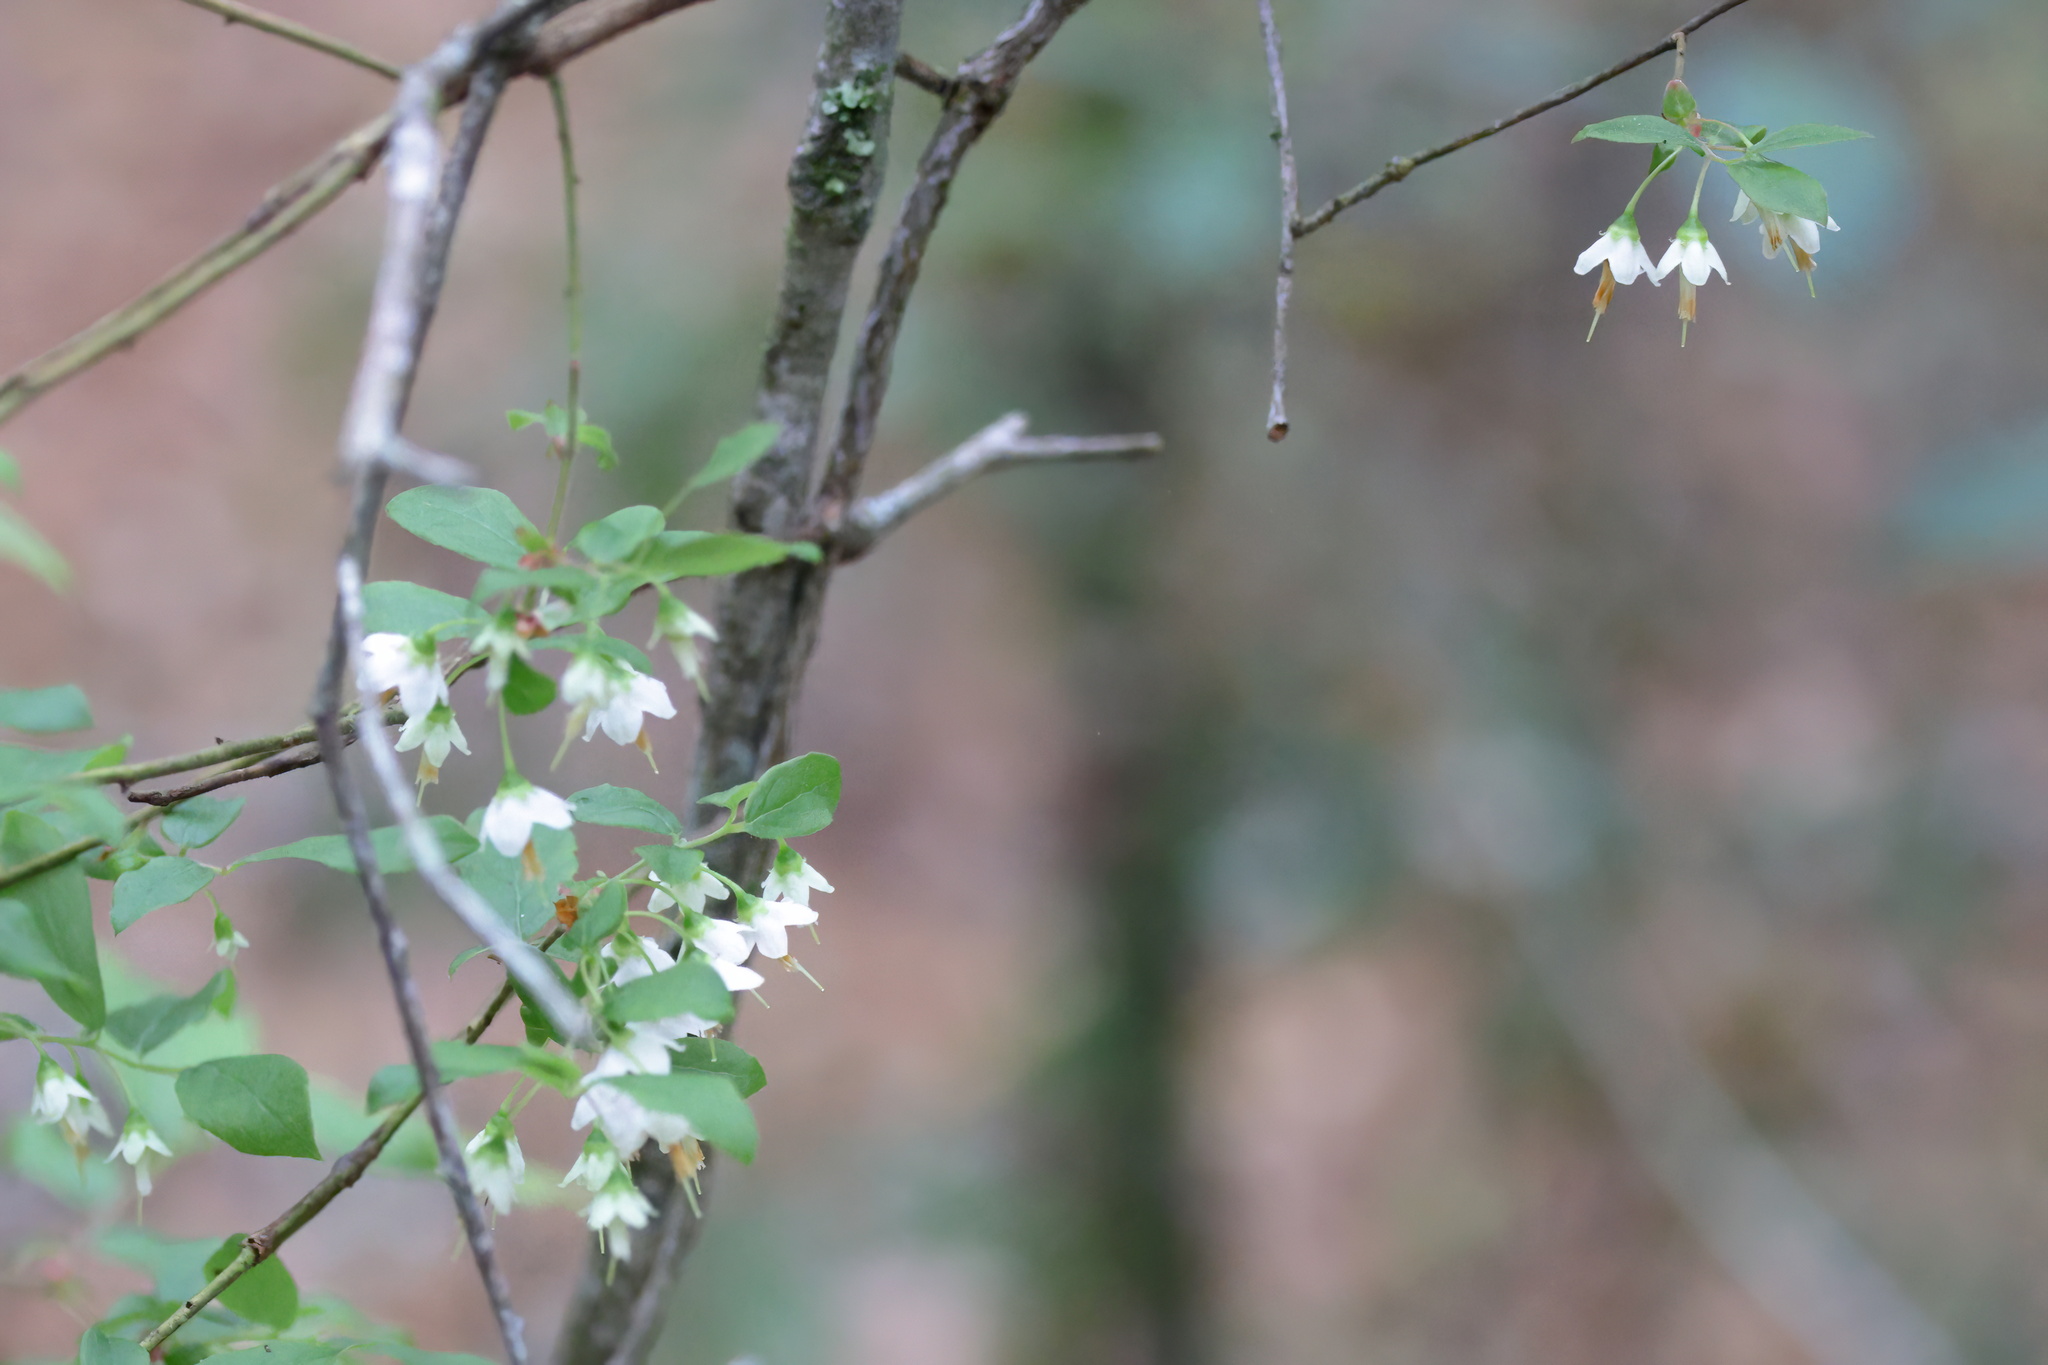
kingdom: Plantae
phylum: Tracheophyta
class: Magnoliopsida
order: Ericales
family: Ericaceae
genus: Vaccinium
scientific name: Vaccinium stamineum
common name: Deerberry
